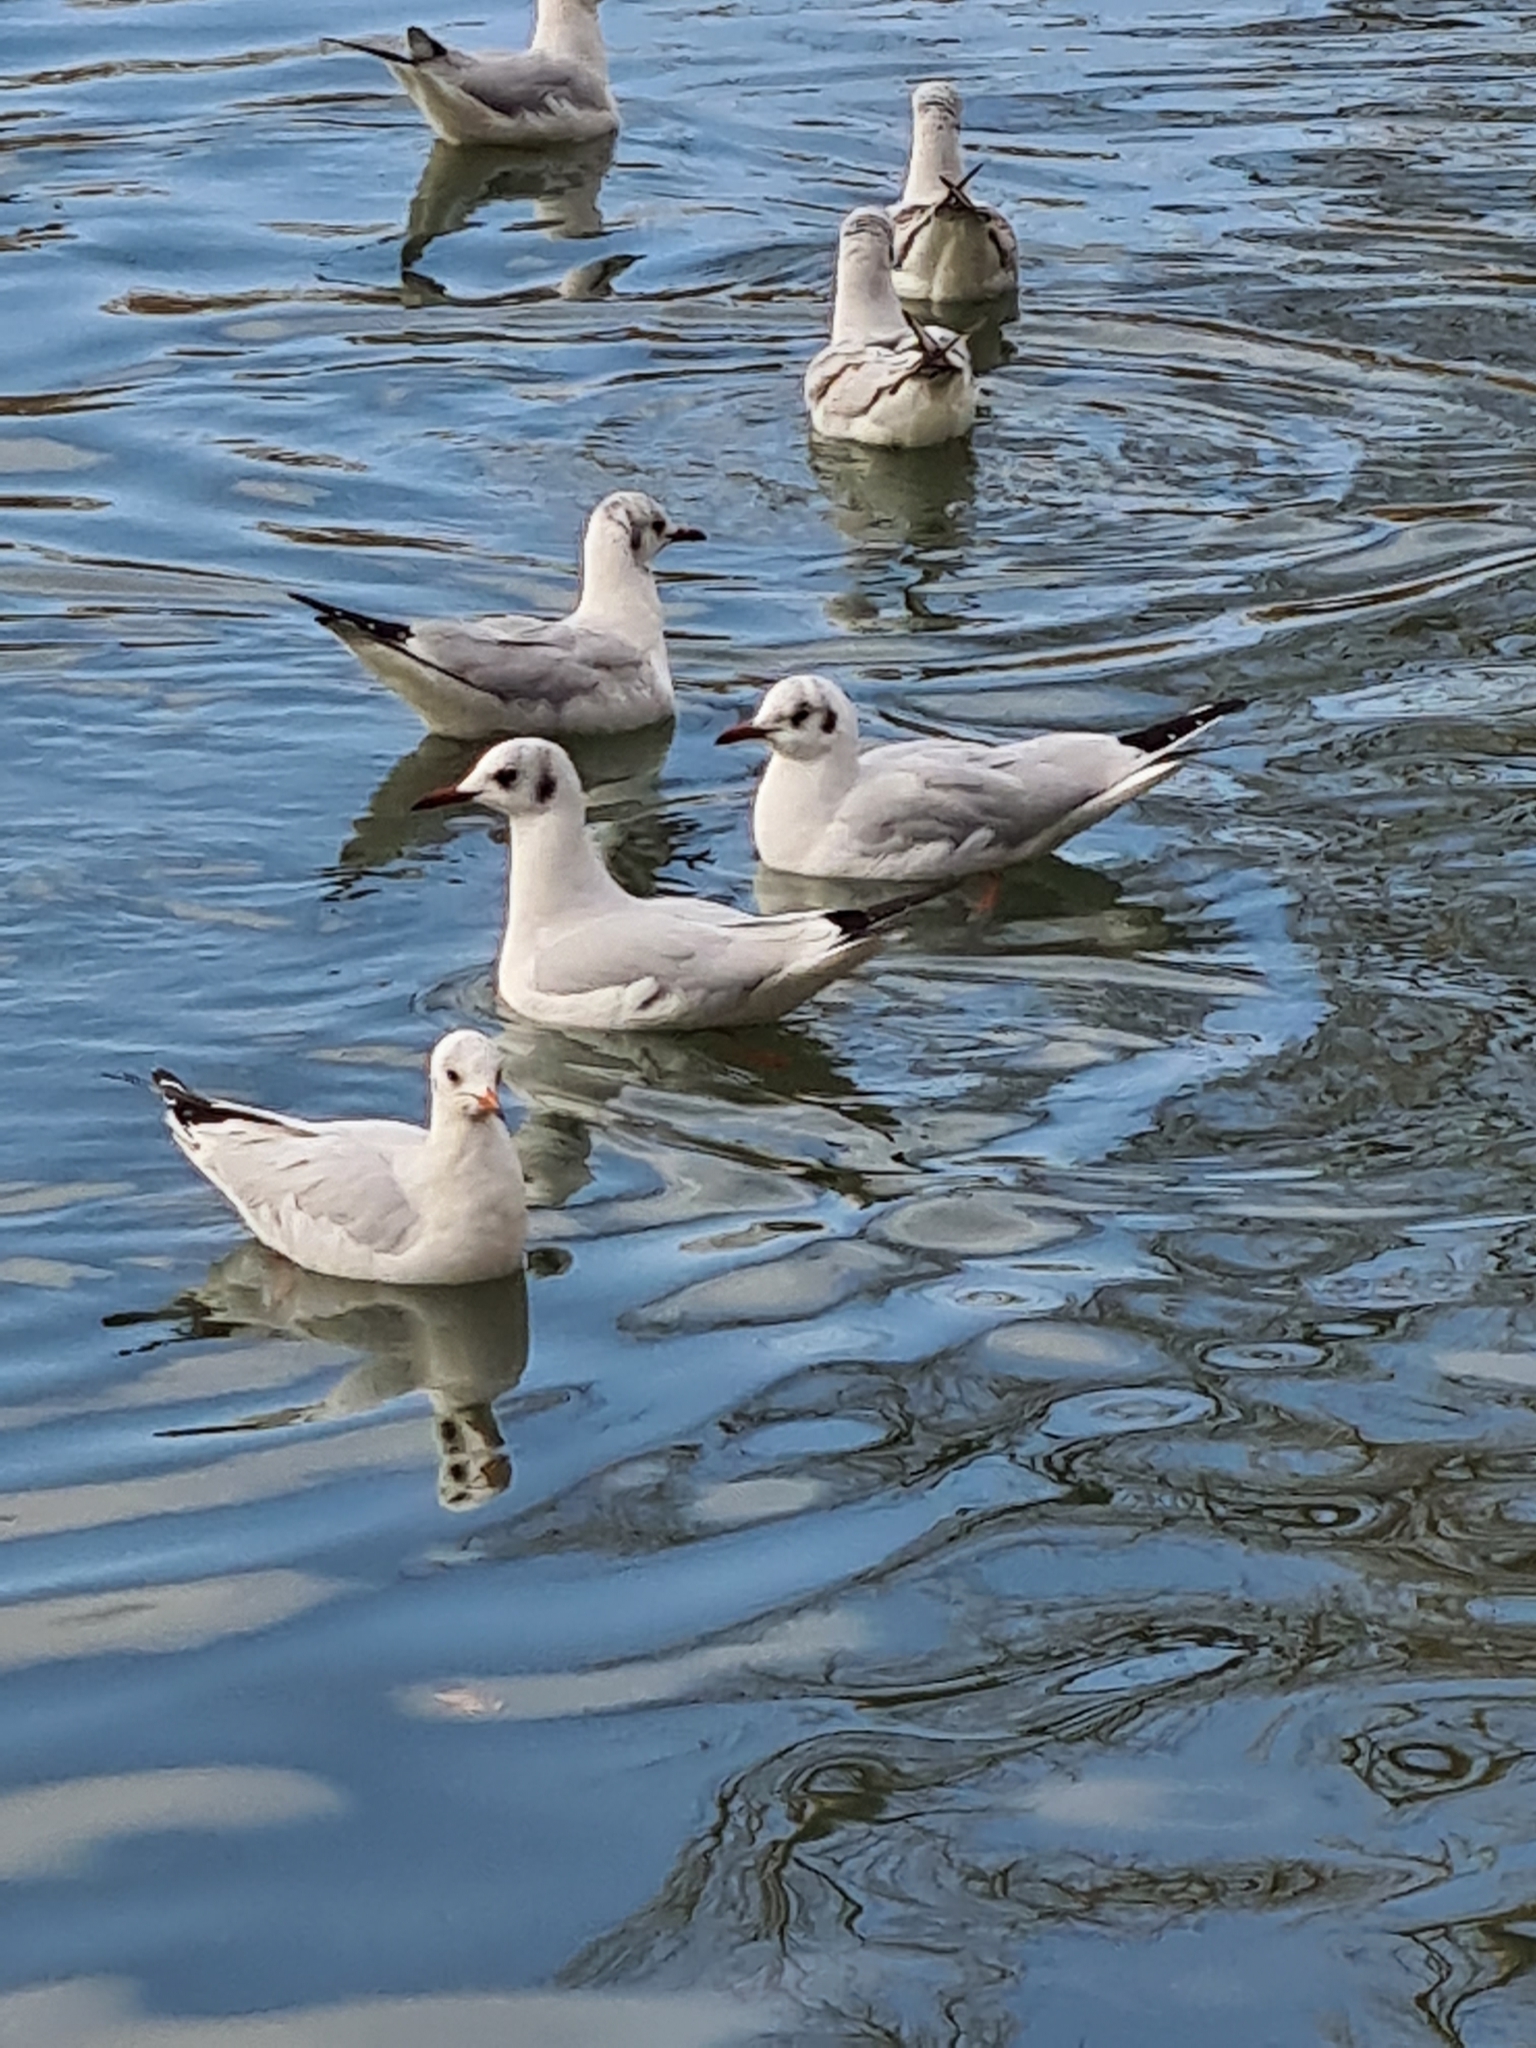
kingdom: Animalia
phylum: Chordata
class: Aves
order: Charadriiformes
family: Laridae
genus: Chroicocephalus
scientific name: Chroicocephalus ridibundus
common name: Black-headed gull
